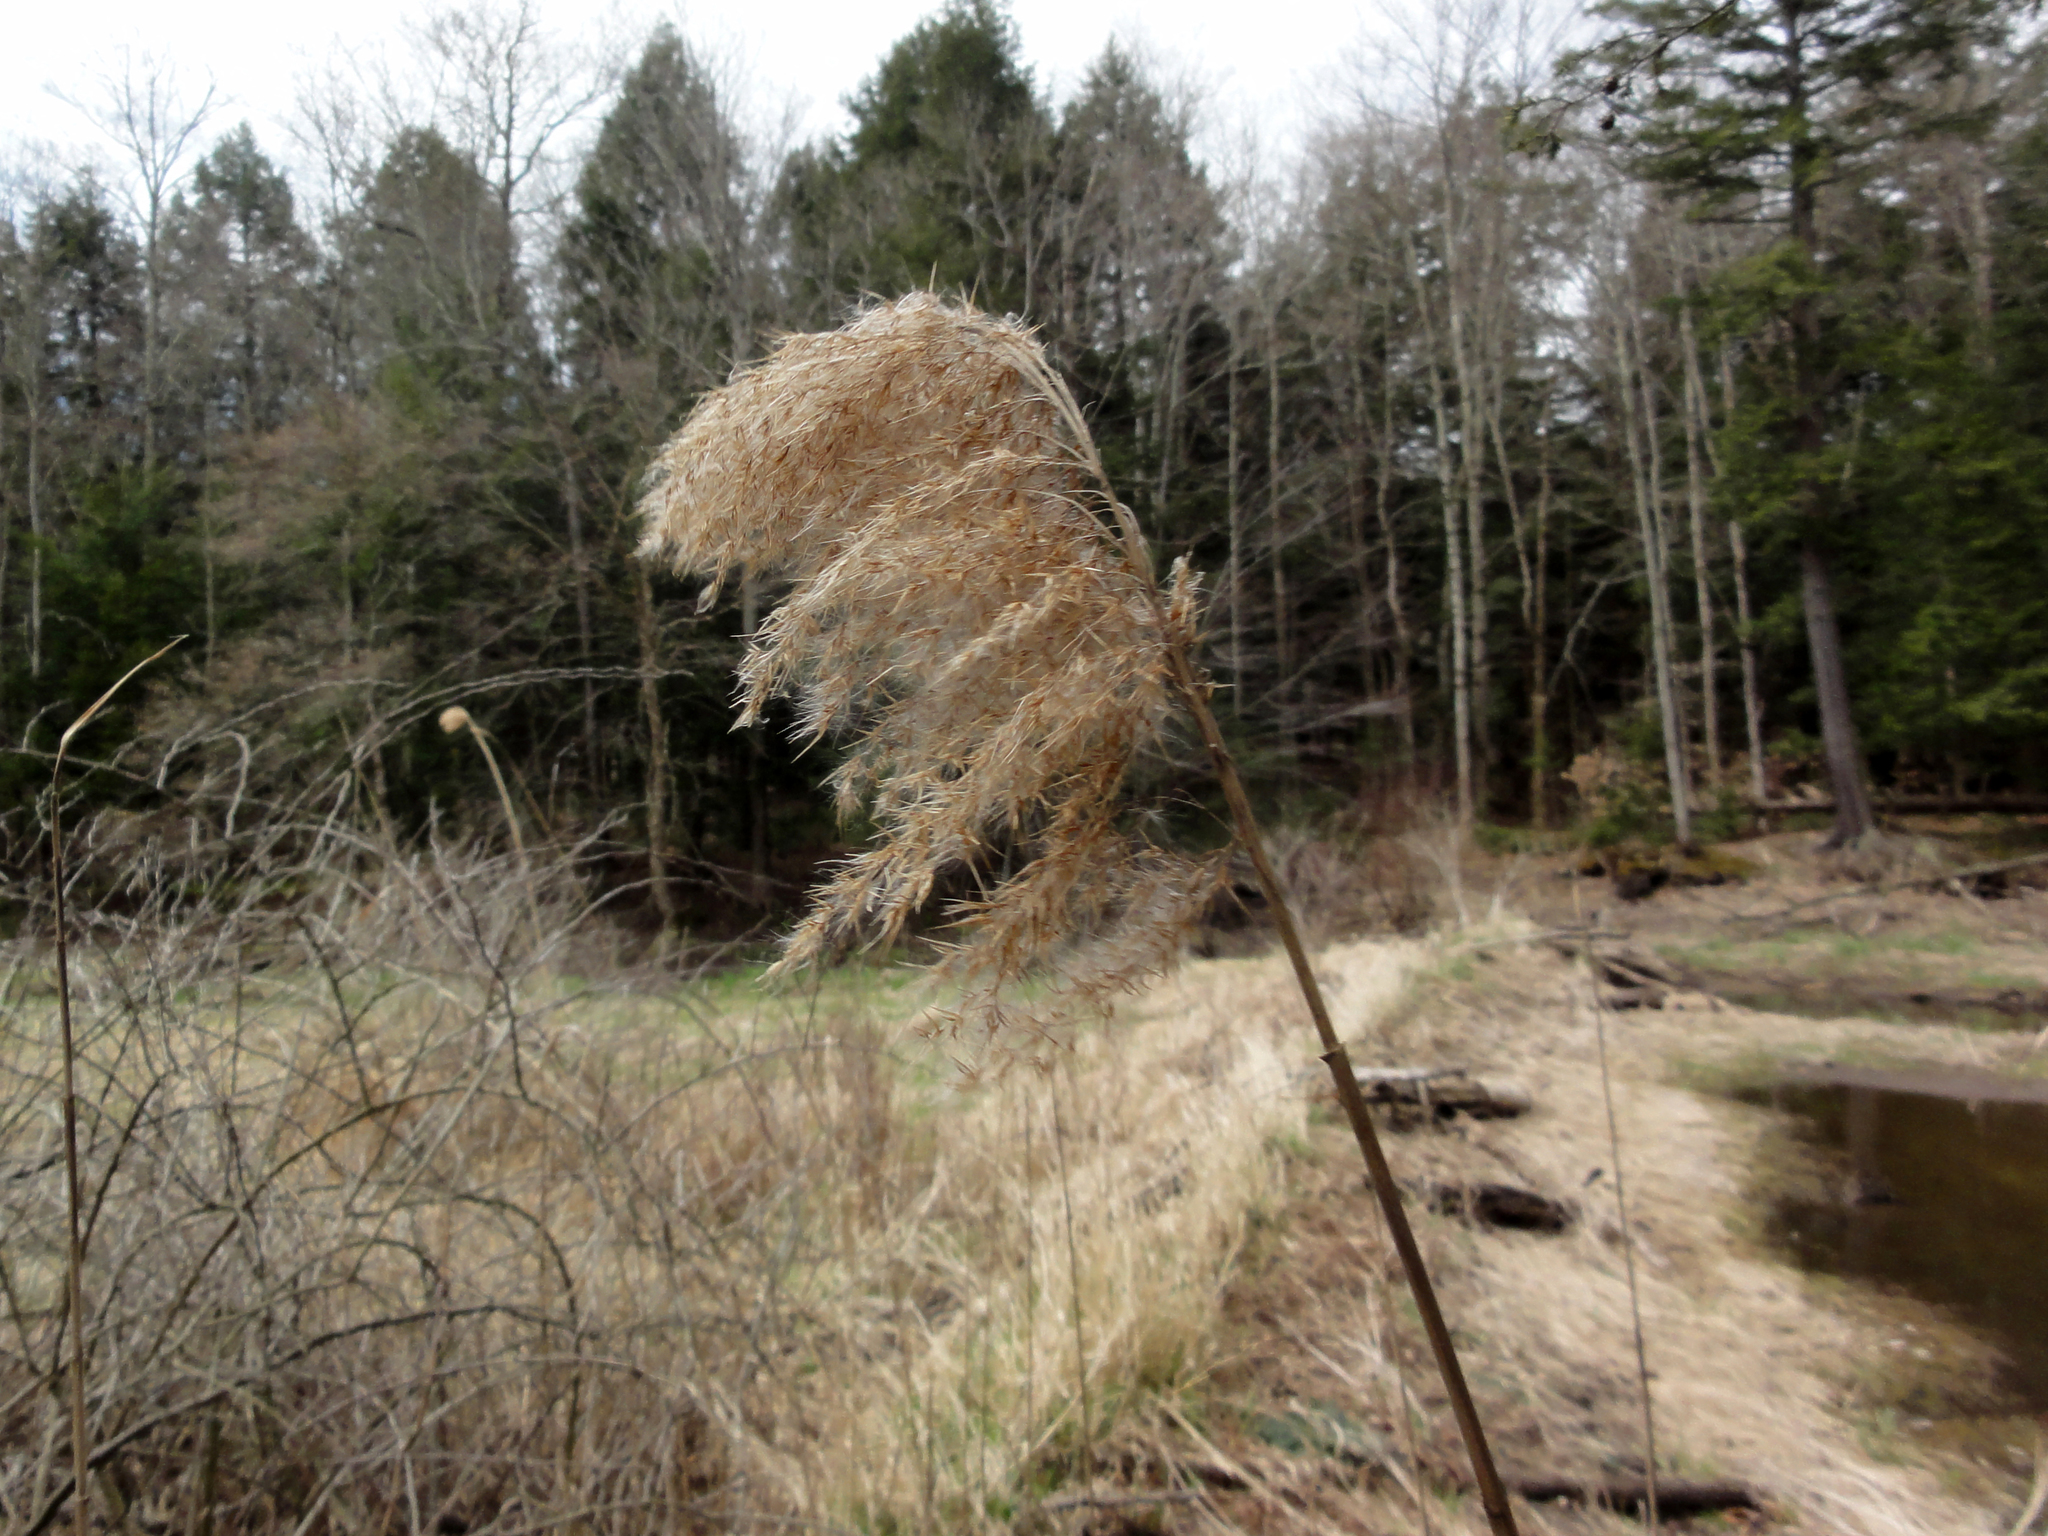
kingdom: Plantae
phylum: Tracheophyta
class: Liliopsida
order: Poales
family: Poaceae
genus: Phragmites
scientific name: Phragmites australis
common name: Common reed
